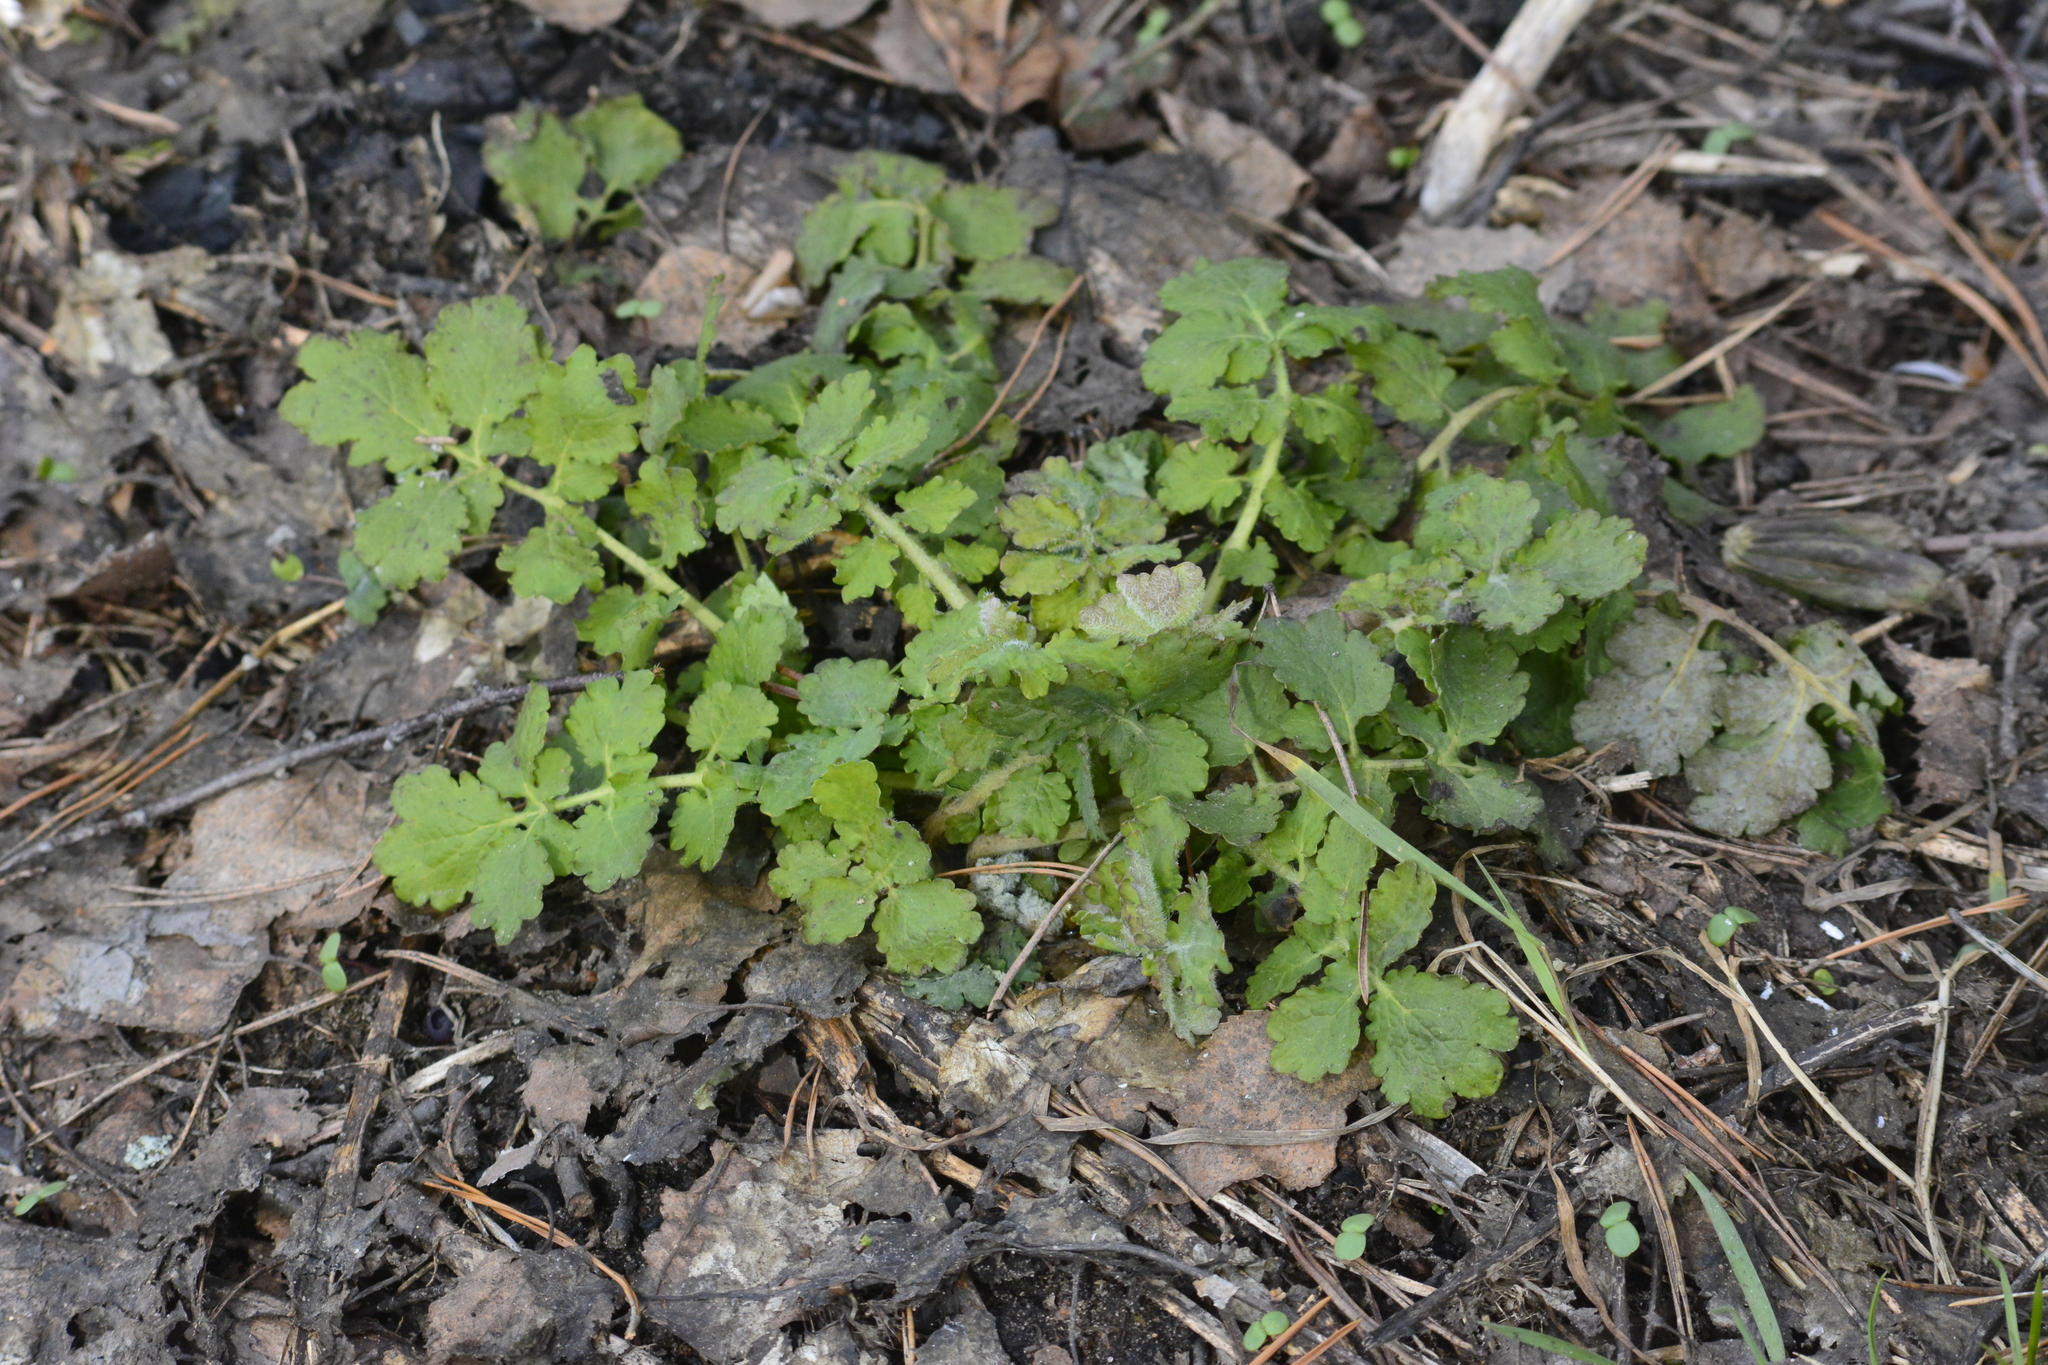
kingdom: Plantae
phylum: Tracheophyta
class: Magnoliopsida
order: Ranunculales
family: Papaveraceae
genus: Chelidonium
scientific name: Chelidonium majus
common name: Greater celandine
